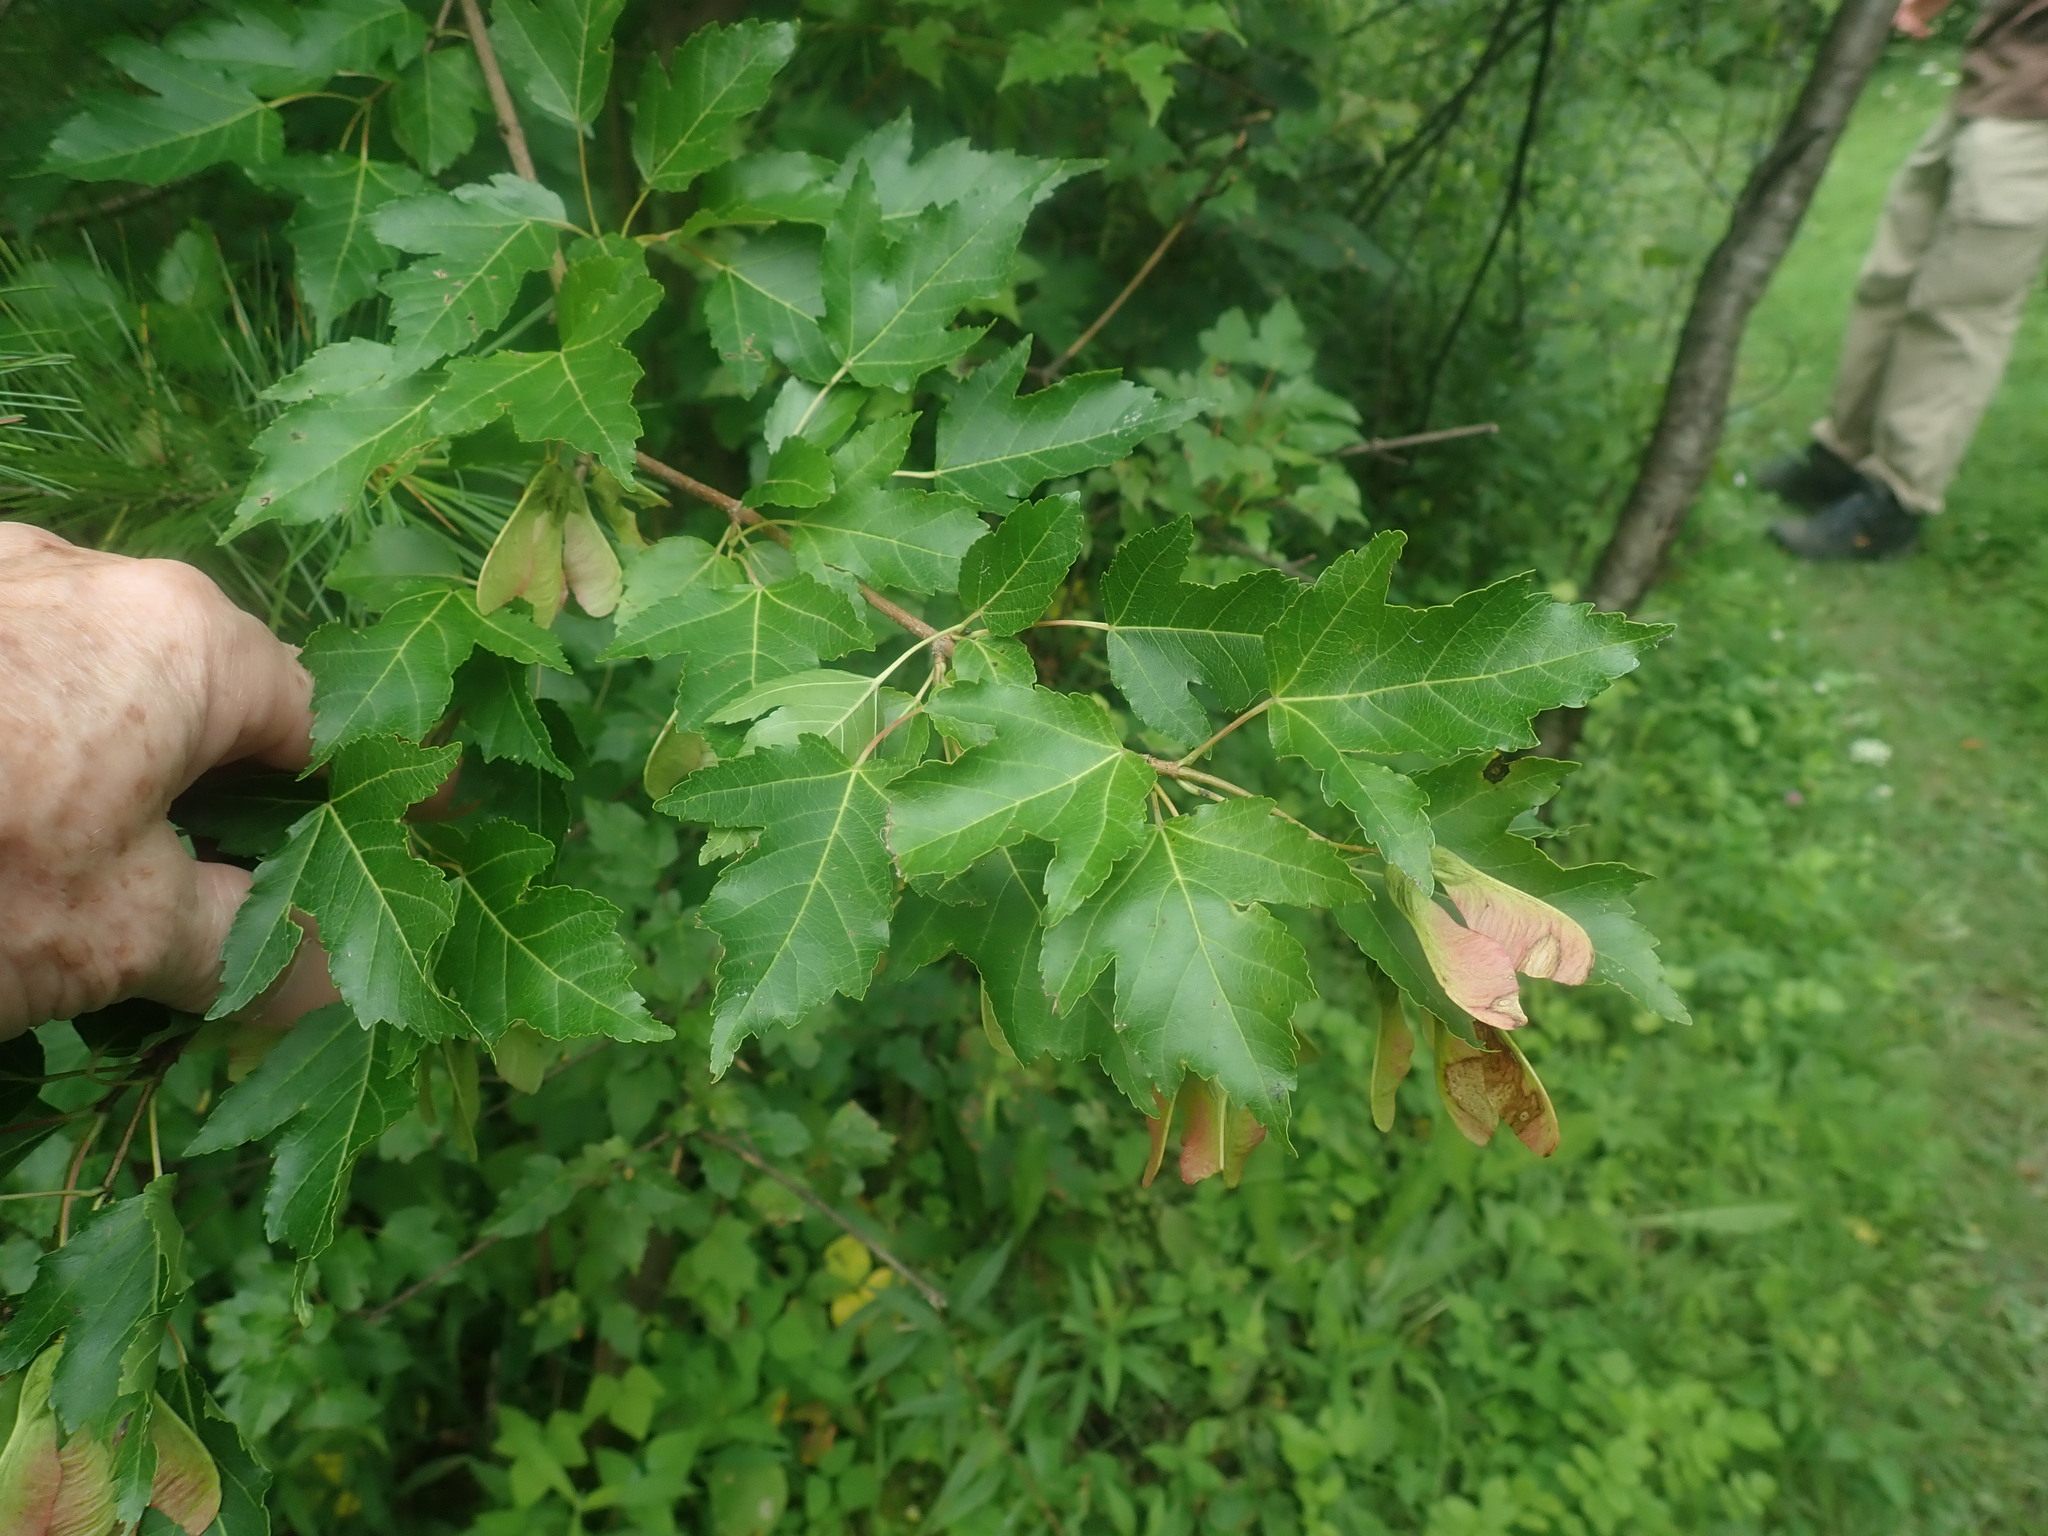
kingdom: Plantae
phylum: Tracheophyta
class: Magnoliopsida
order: Sapindales
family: Sapindaceae
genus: Acer
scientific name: Acer tataricum
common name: Tartar maple
